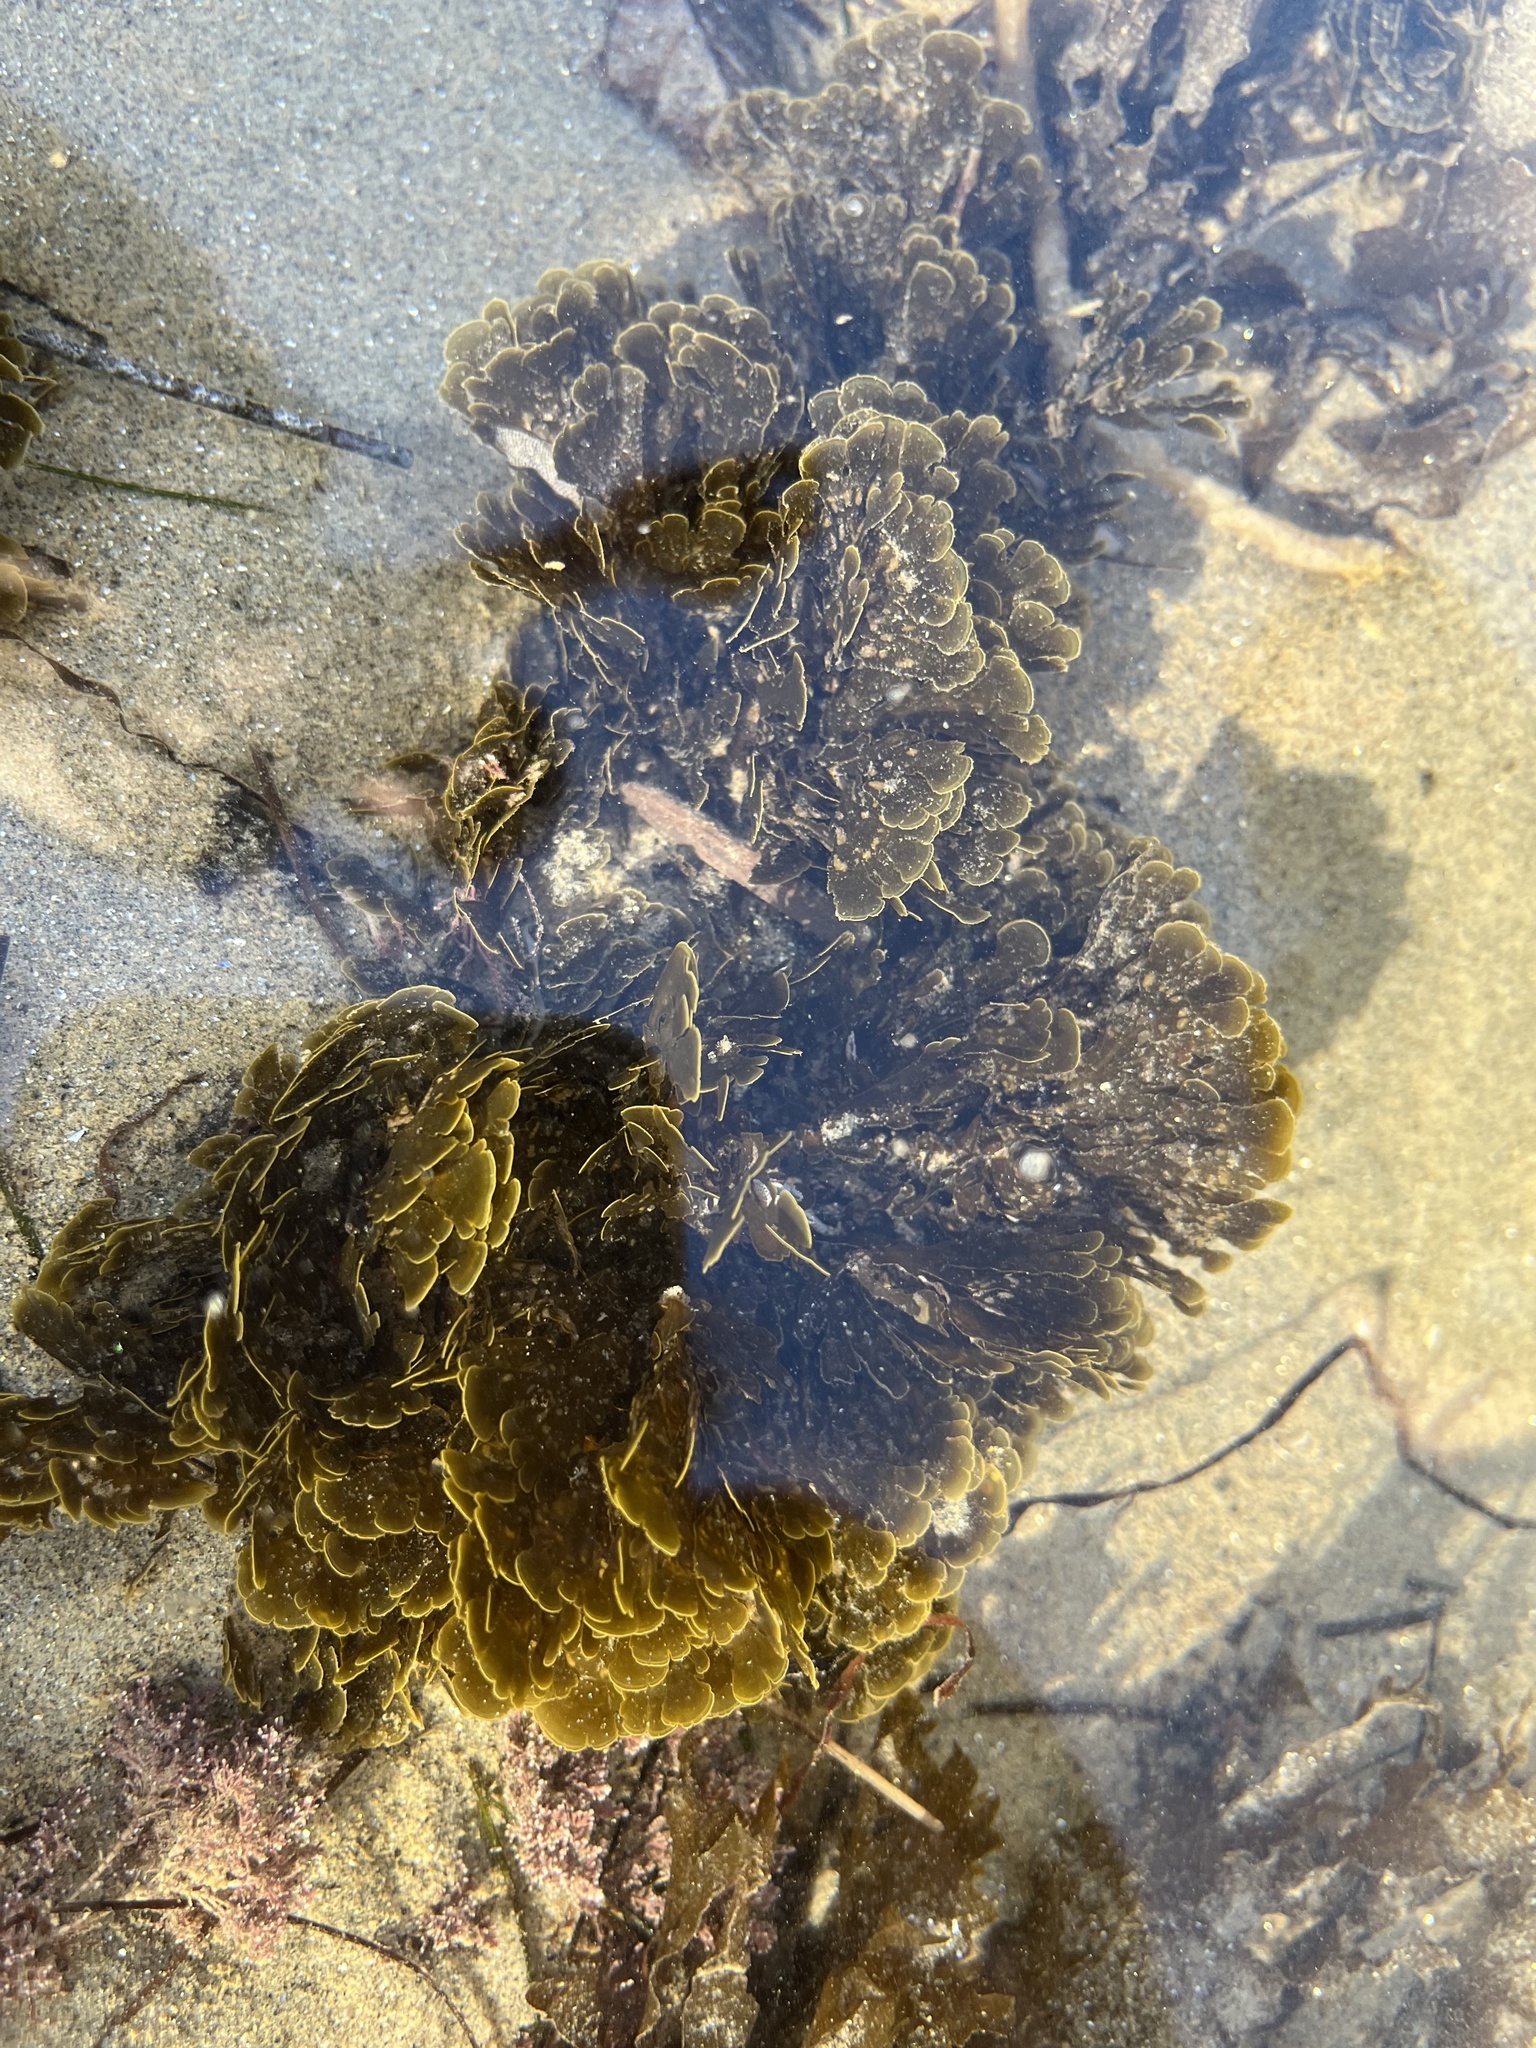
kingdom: Chromista
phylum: Ochrophyta
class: Phaeophyceae
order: Dictyotales
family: Dictyotaceae
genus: Zonaria
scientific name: Zonaria farlowii
